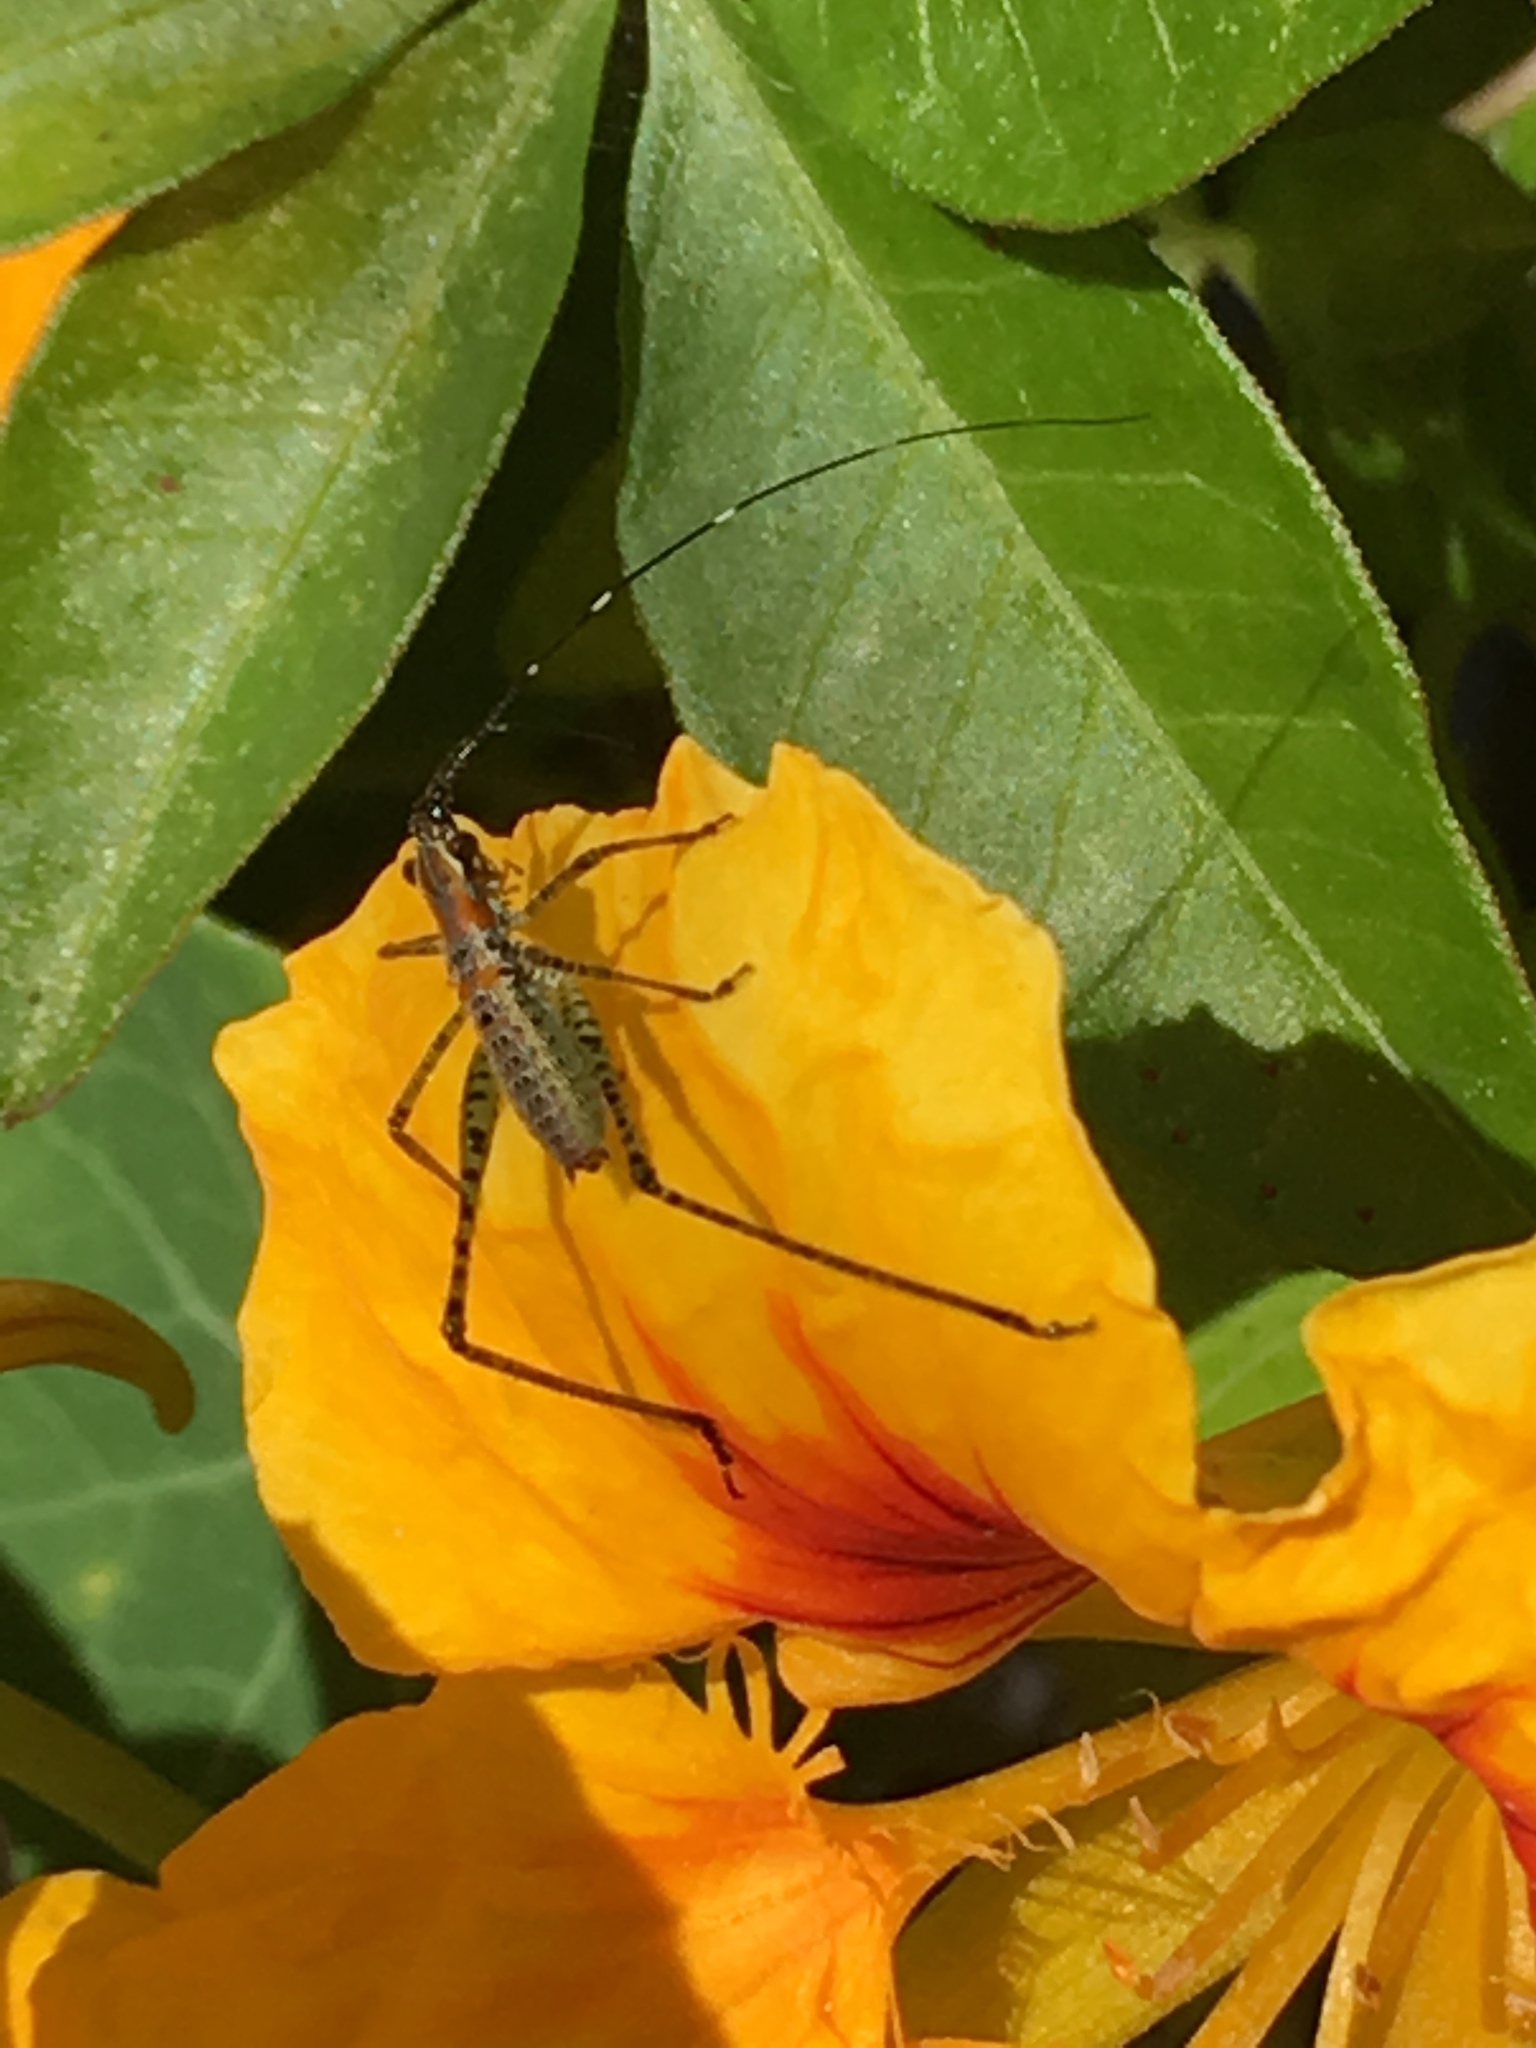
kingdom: Animalia
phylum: Arthropoda
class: Insecta
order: Orthoptera
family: Tettigoniidae
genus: Scudderia
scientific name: Scudderia
